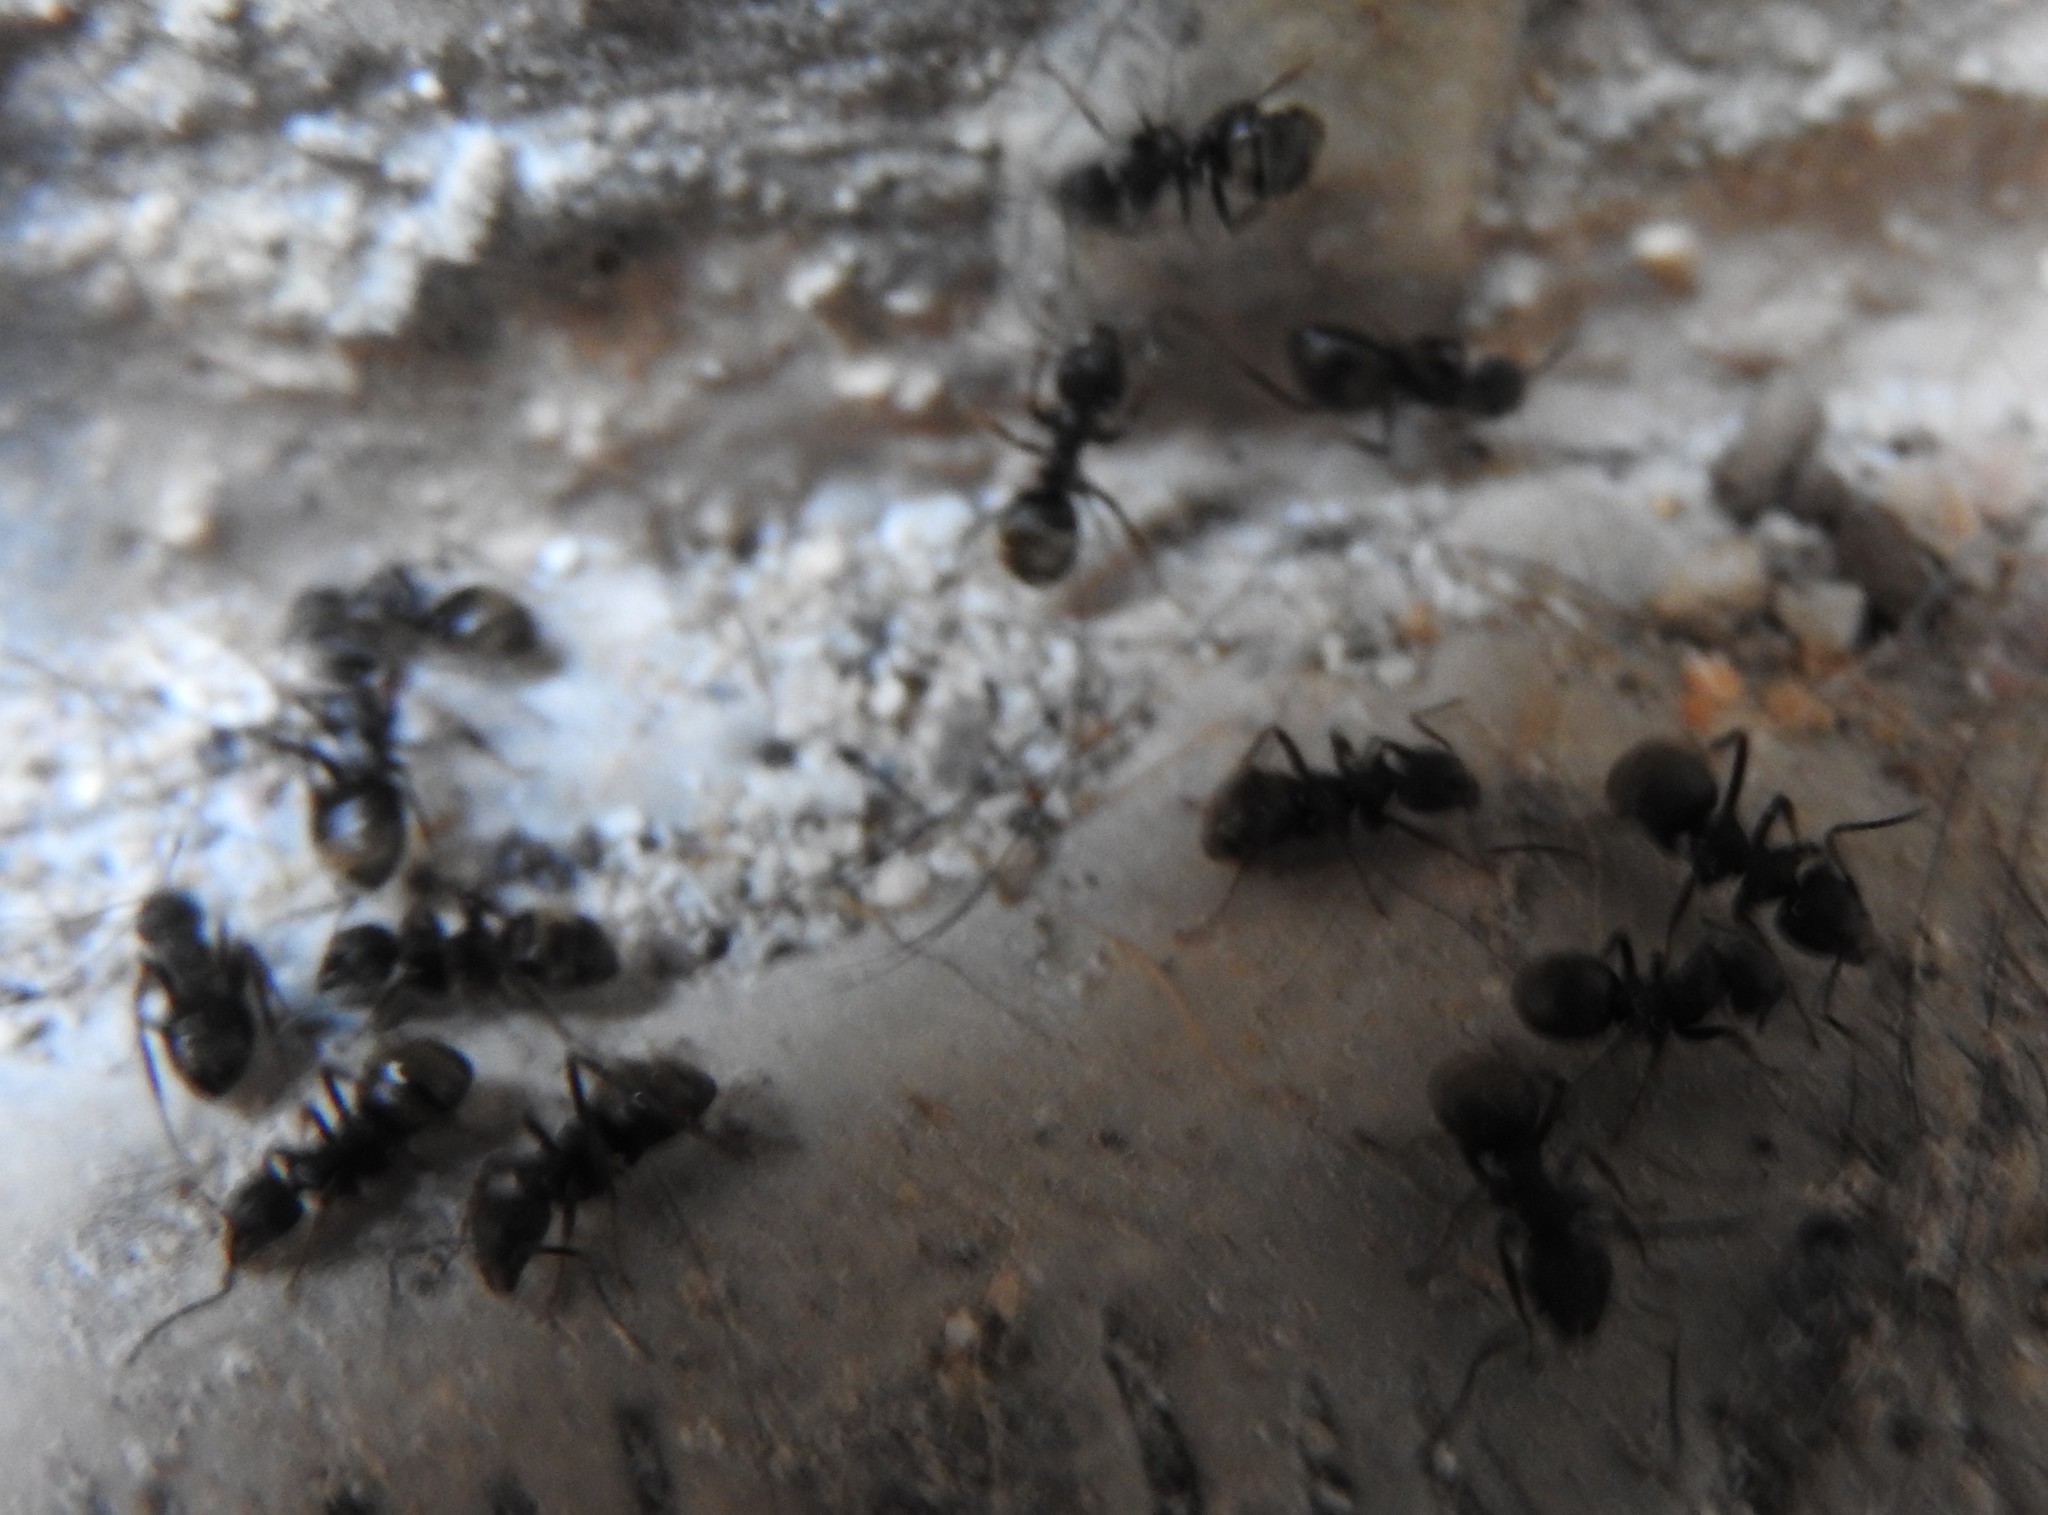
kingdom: Animalia
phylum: Arthropoda
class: Insecta
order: Hymenoptera
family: Formicidae
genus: Dolichoderus
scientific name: Dolichoderus bispinosus
